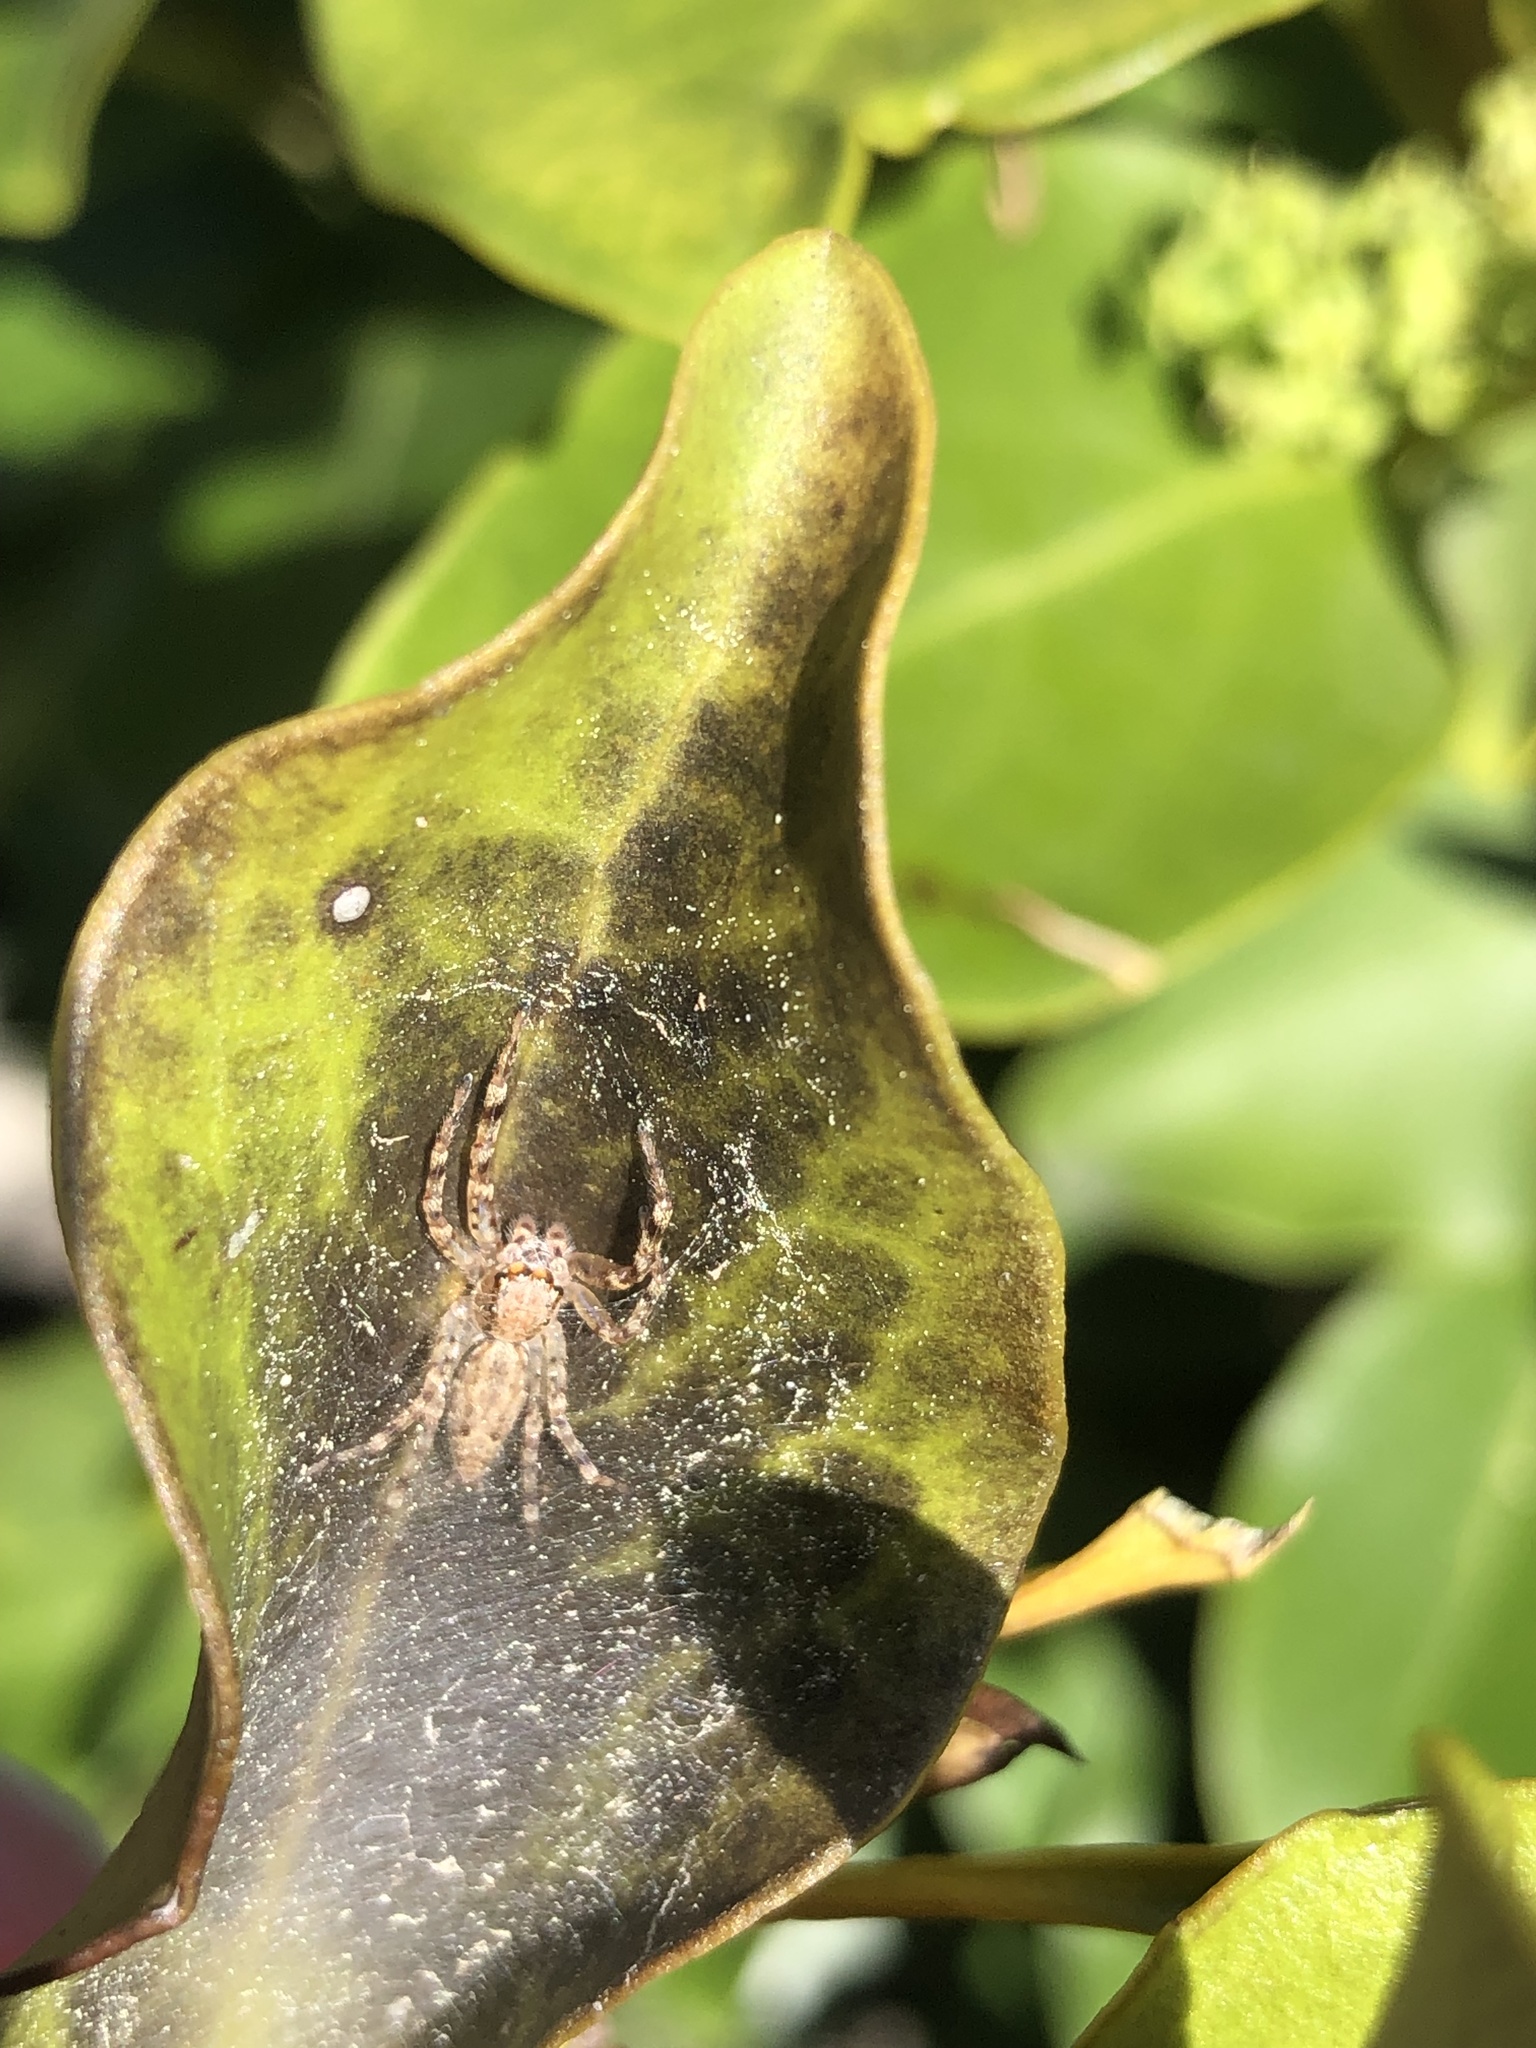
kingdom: Animalia
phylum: Arthropoda
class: Arachnida
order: Araneae
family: Salticidae
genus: Helpis
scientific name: Helpis minitabunda
